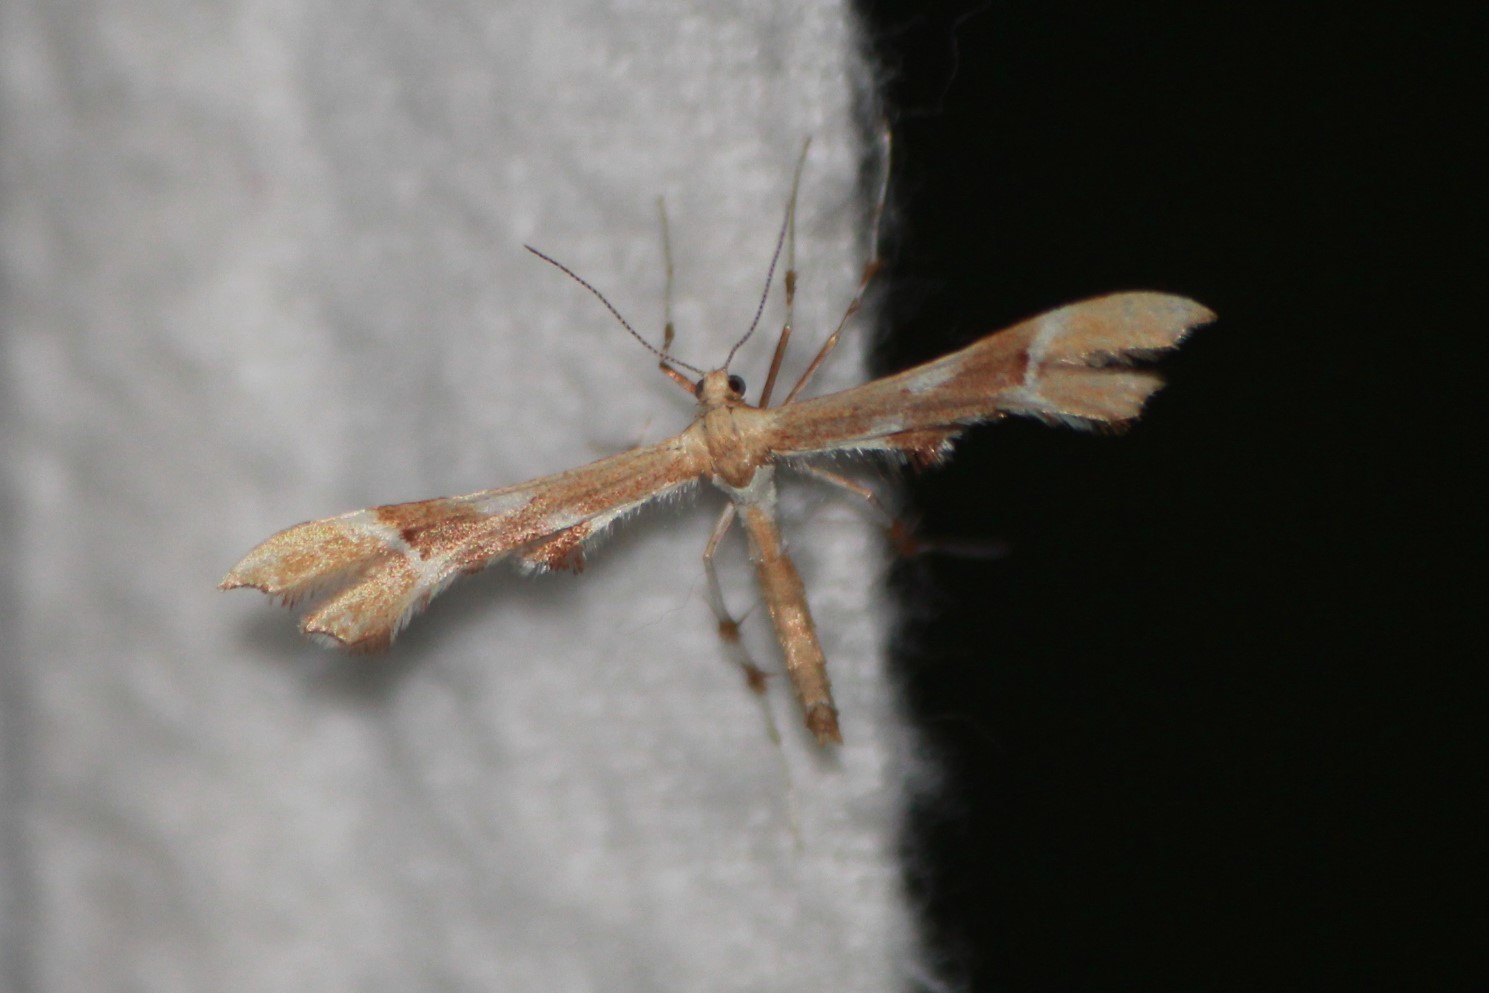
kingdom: Animalia
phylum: Arthropoda
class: Insecta
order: Lepidoptera
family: Pterophoridae
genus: Cnaemidophorus
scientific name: Cnaemidophorus rhododactyla
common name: Rose plume
